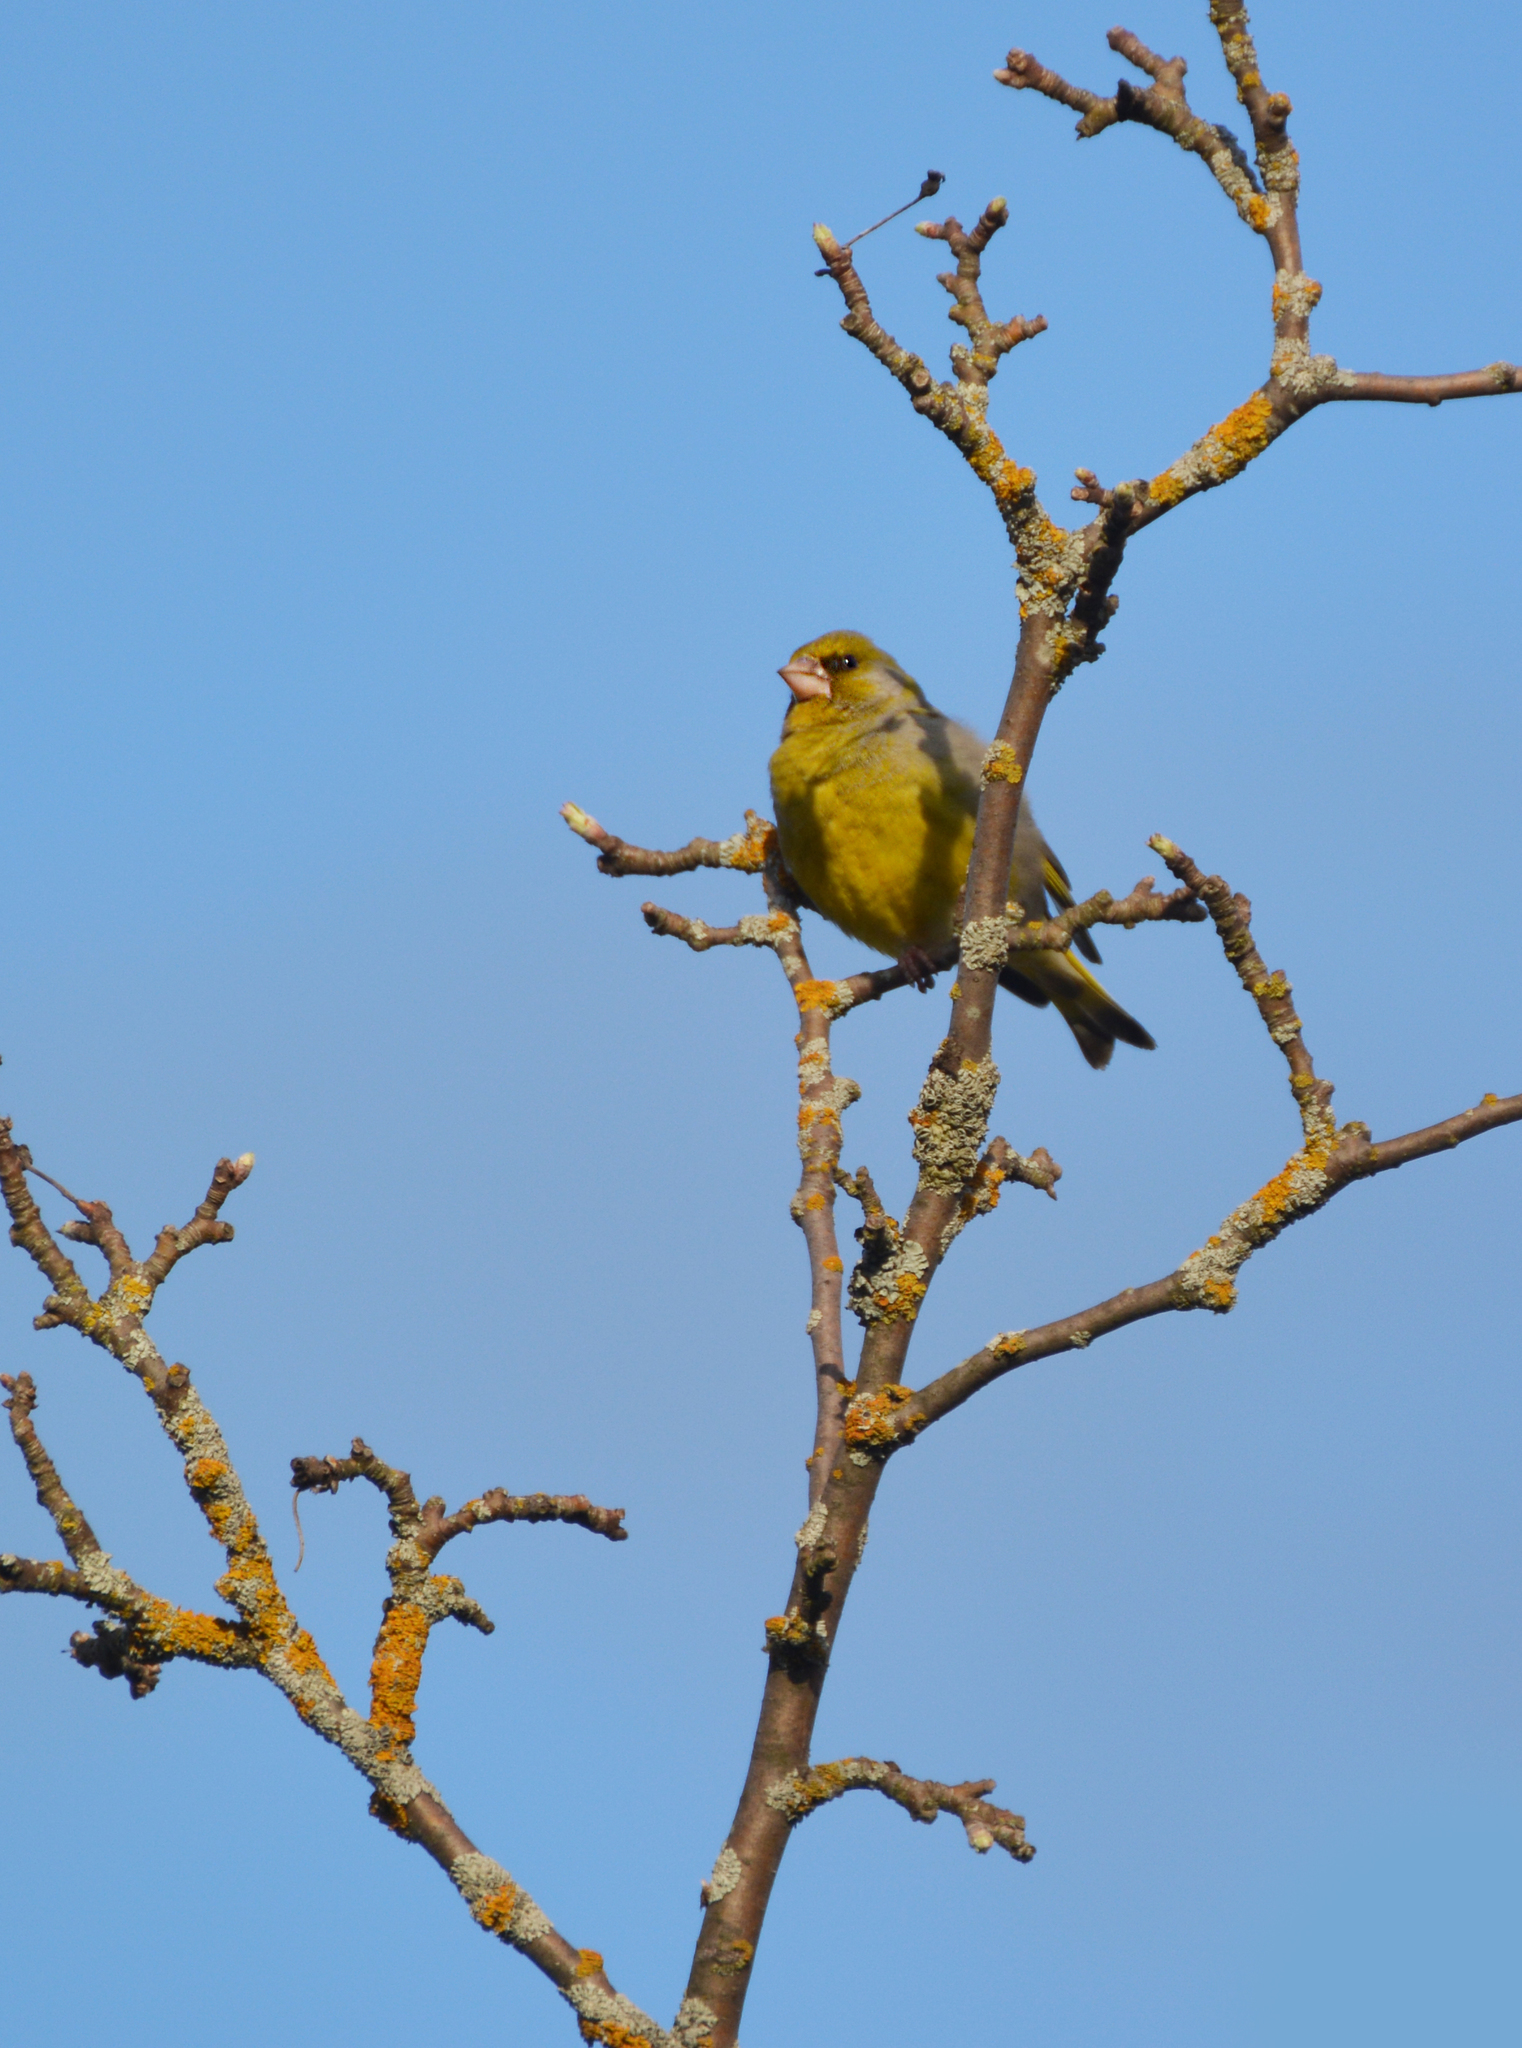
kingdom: Plantae
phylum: Tracheophyta
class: Liliopsida
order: Poales
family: Poaceae
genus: Chloris
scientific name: Chloris chloris
